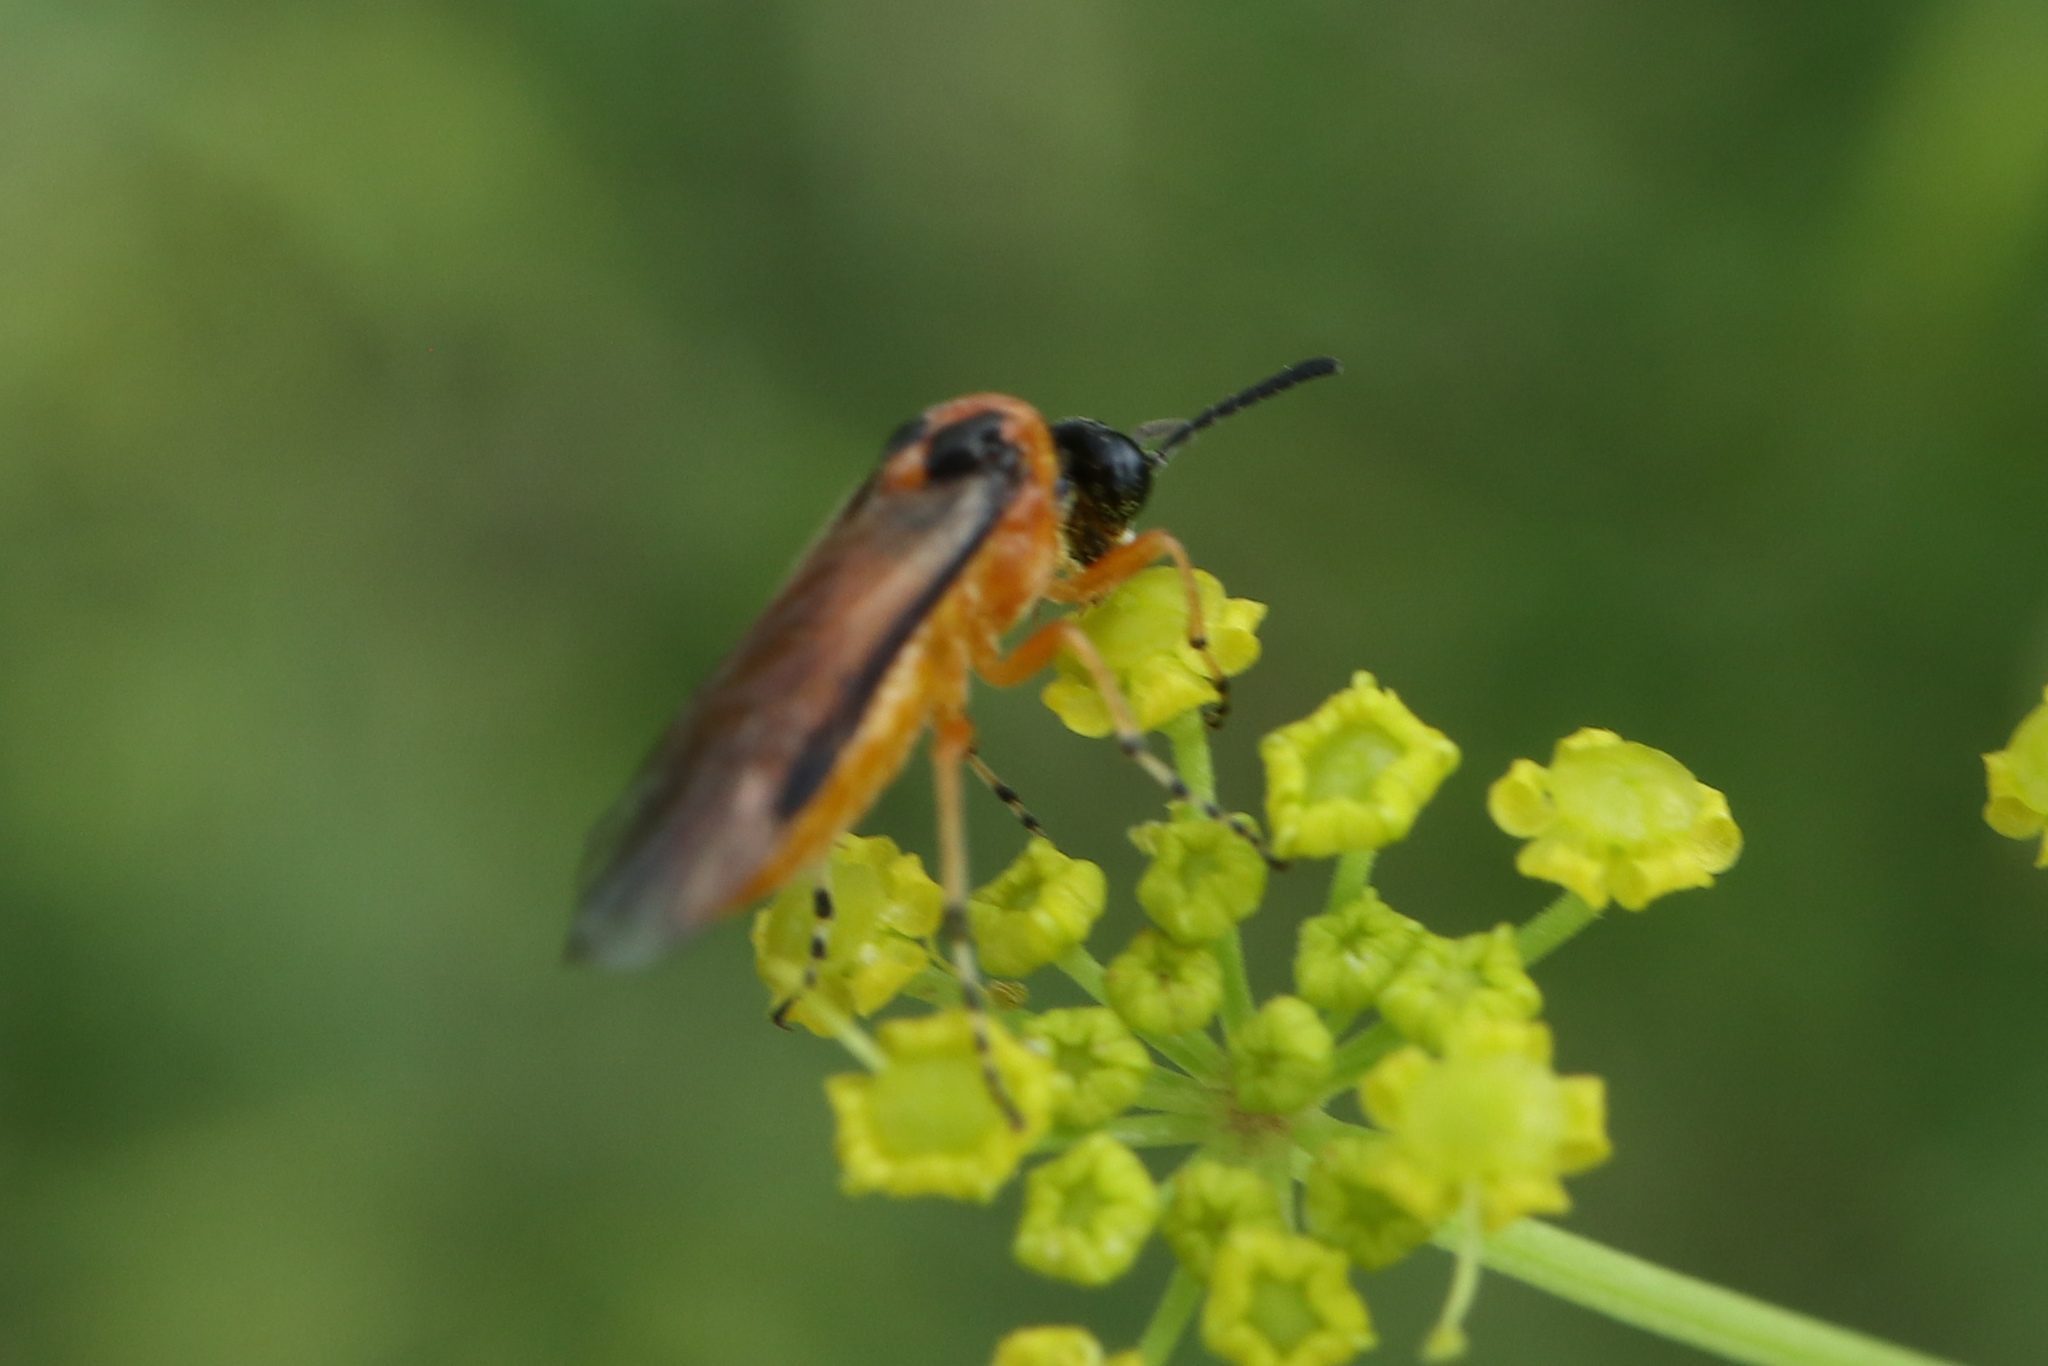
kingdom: Animalia
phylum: Arthropoda
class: Insecta
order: Hymenoptera
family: Tenthredinidae
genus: Athalia
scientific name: Athalia rosae
